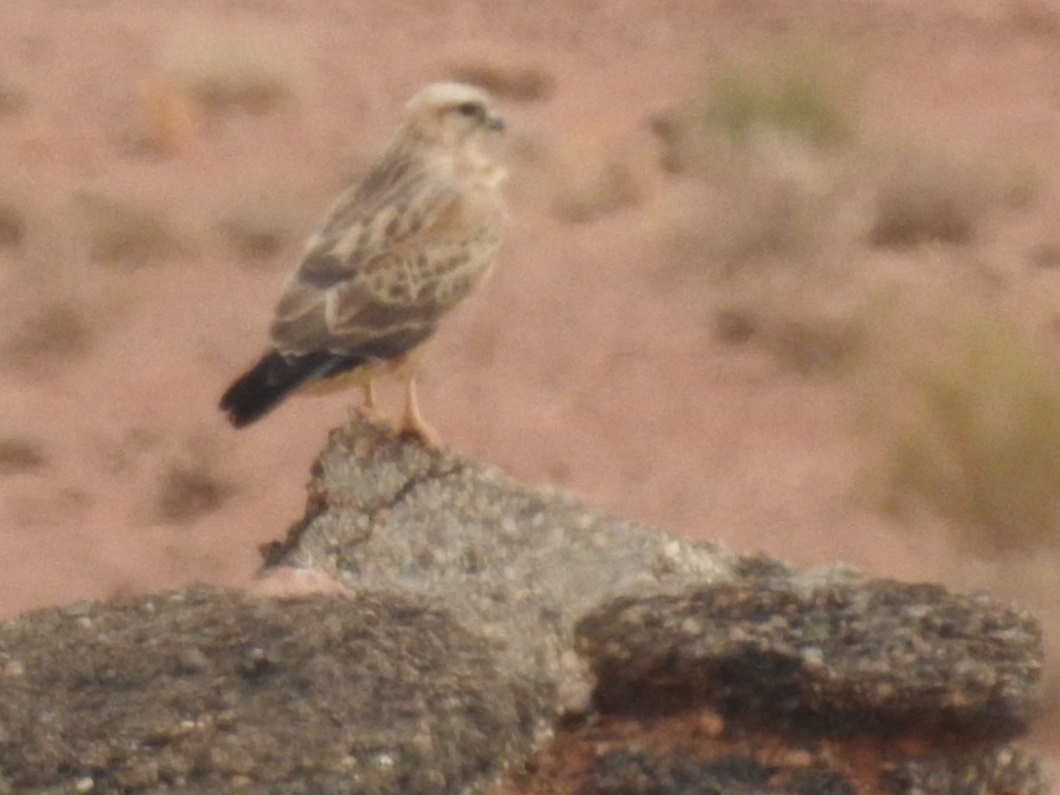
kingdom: Animalia
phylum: Chordata
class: Aves
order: Accipitriformes
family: Accipitridae
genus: Buteo
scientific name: Buteo rufinus
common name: Long-legged buzzard
